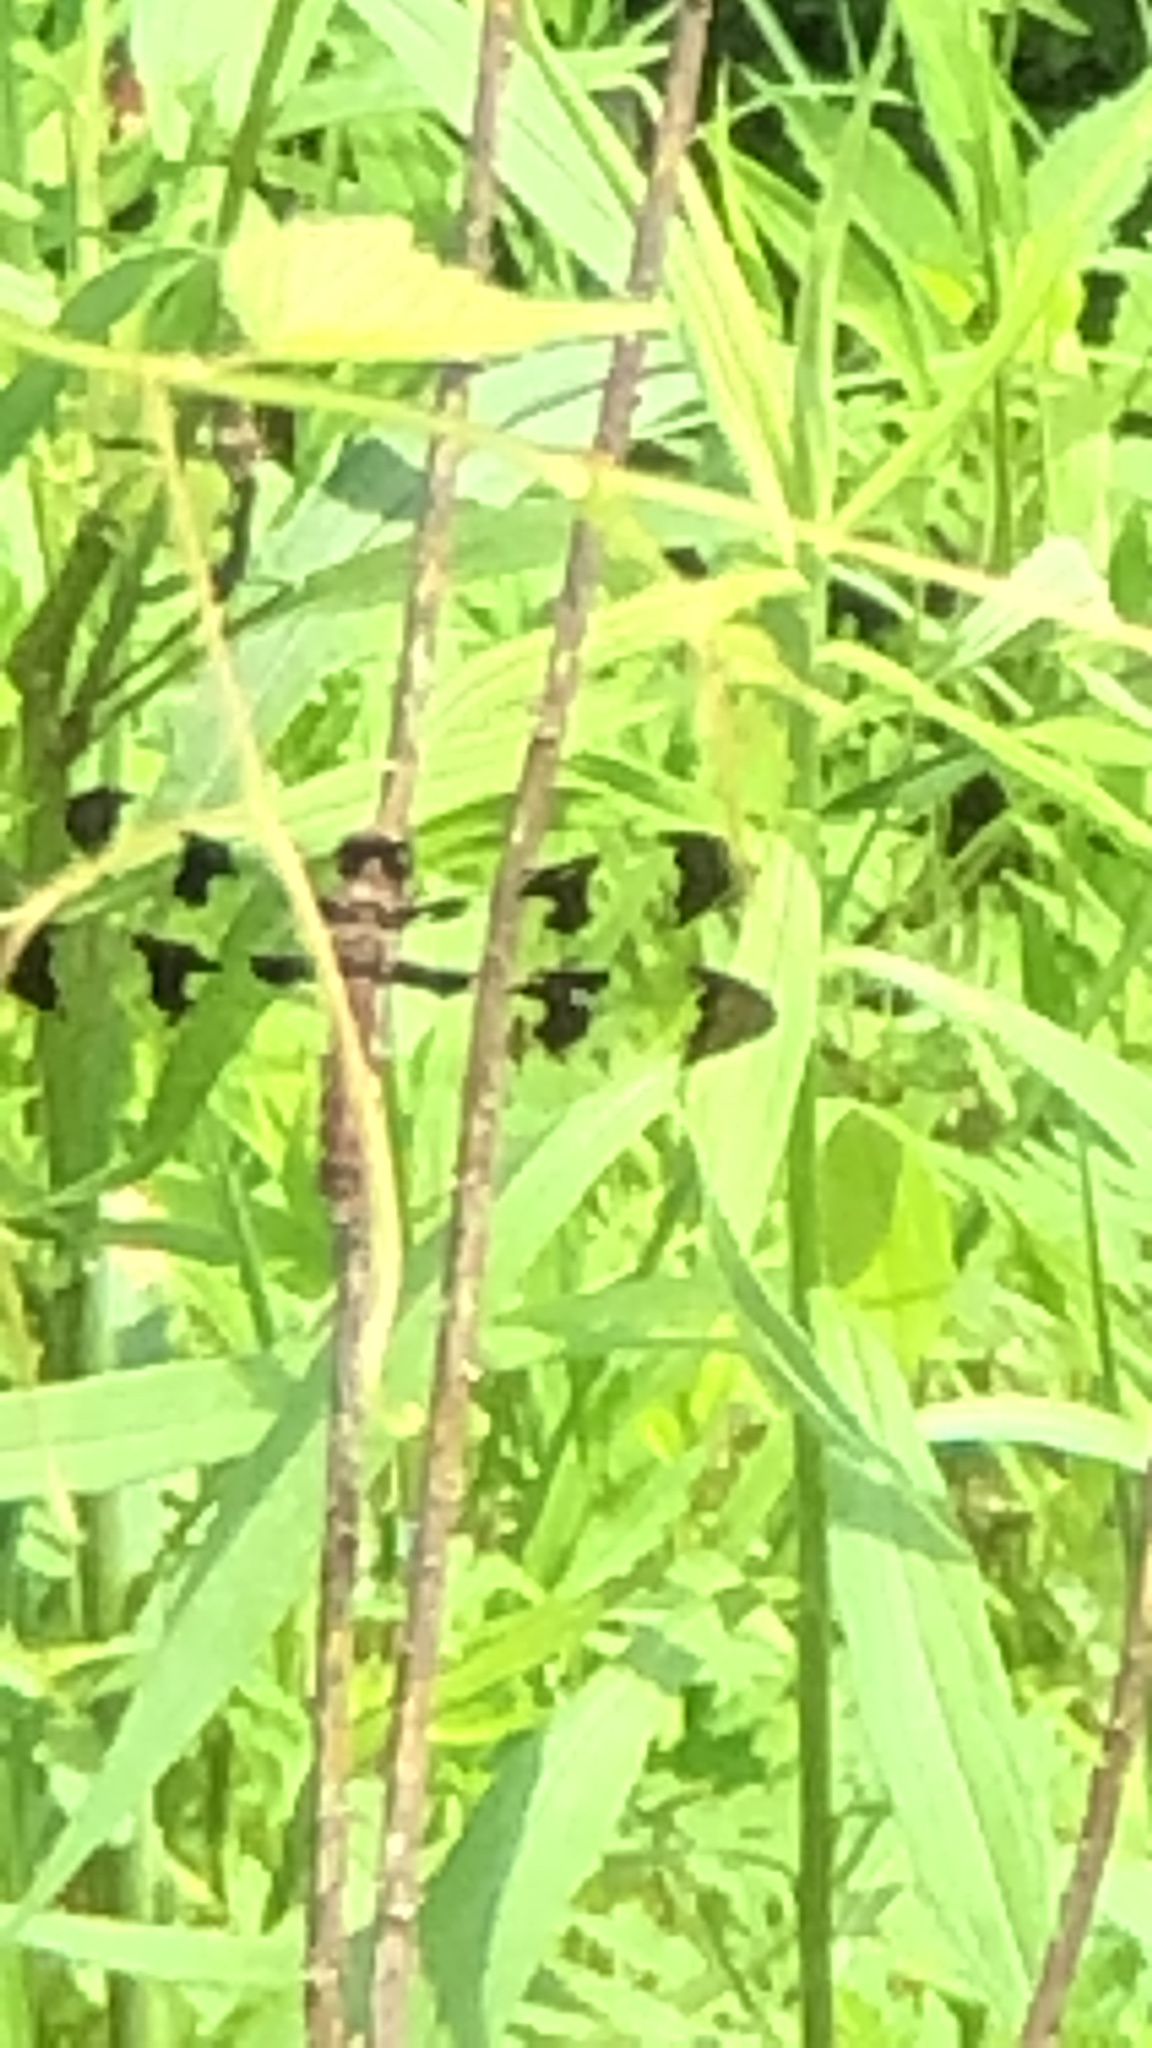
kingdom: Animalia
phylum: Arthropoda
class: Insecta
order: Odonata
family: Libellulidae
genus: Plathemis
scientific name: Plathemis lydia
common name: Common whitetail
